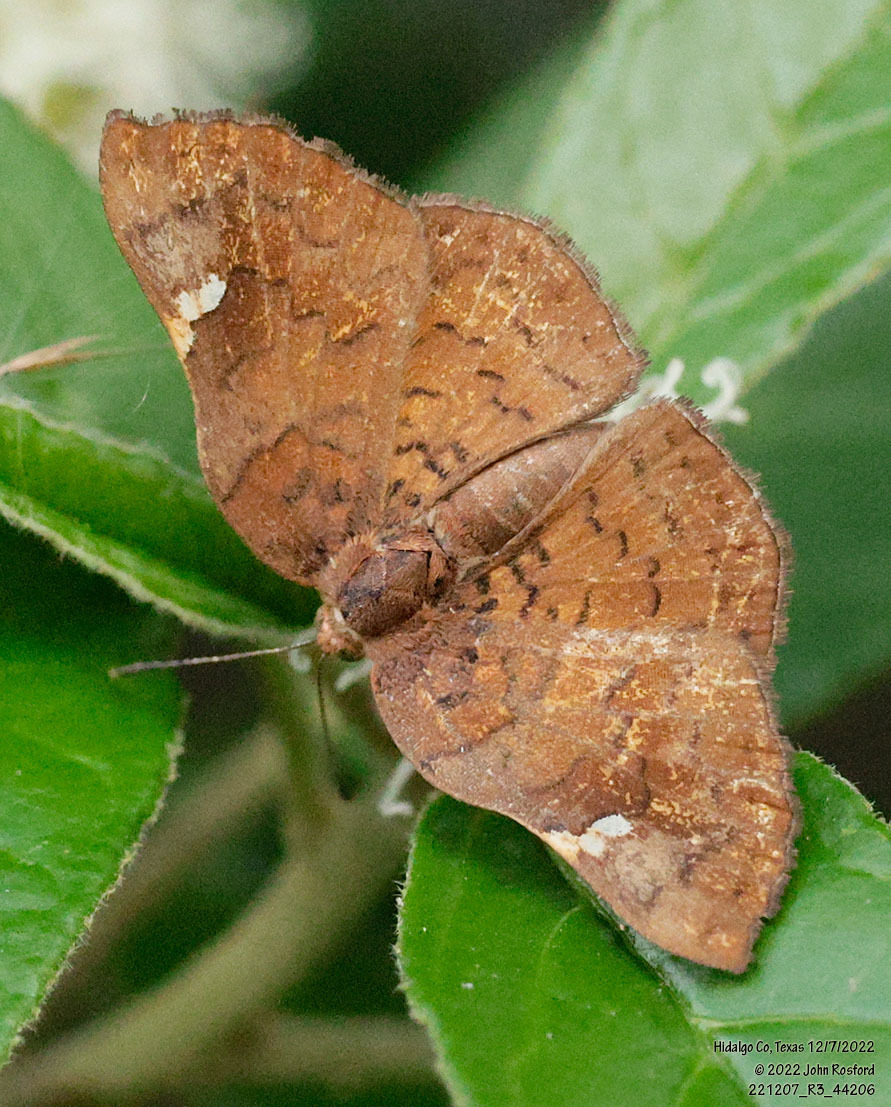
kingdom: Animalia
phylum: Arthropoda
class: Insecta
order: Lepidoptera
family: Riodinidae
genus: Curvie
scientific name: Curvie emesia
